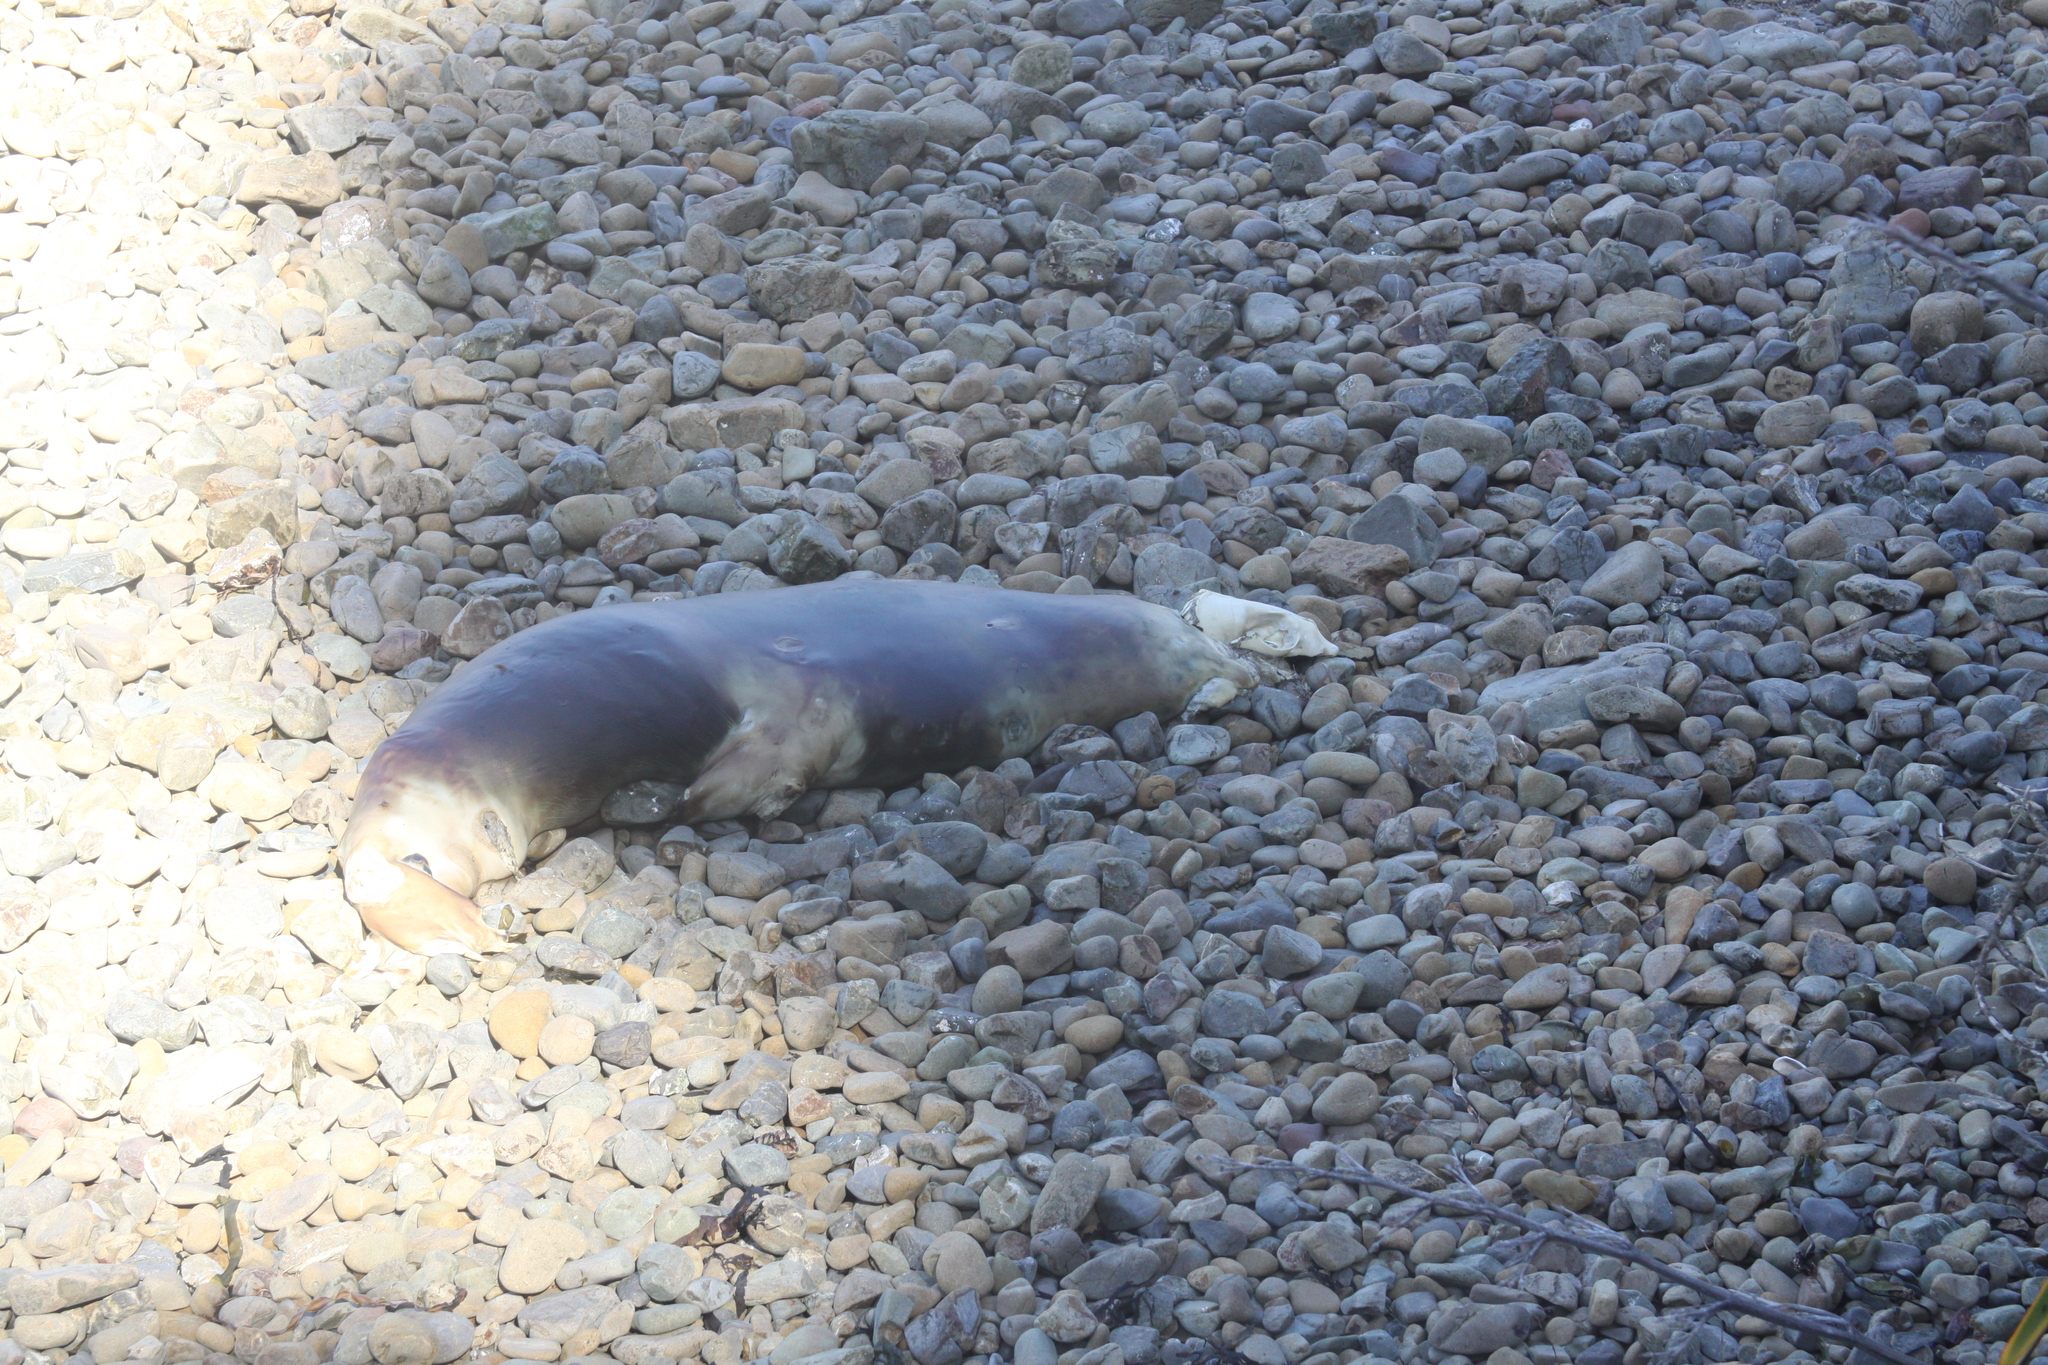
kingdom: Animalia
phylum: Chordata
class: Mammalia
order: Carnivora
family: Otariidae
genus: Arctocephalus
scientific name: Arctocephalus forsteri
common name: New zealand fur seal
